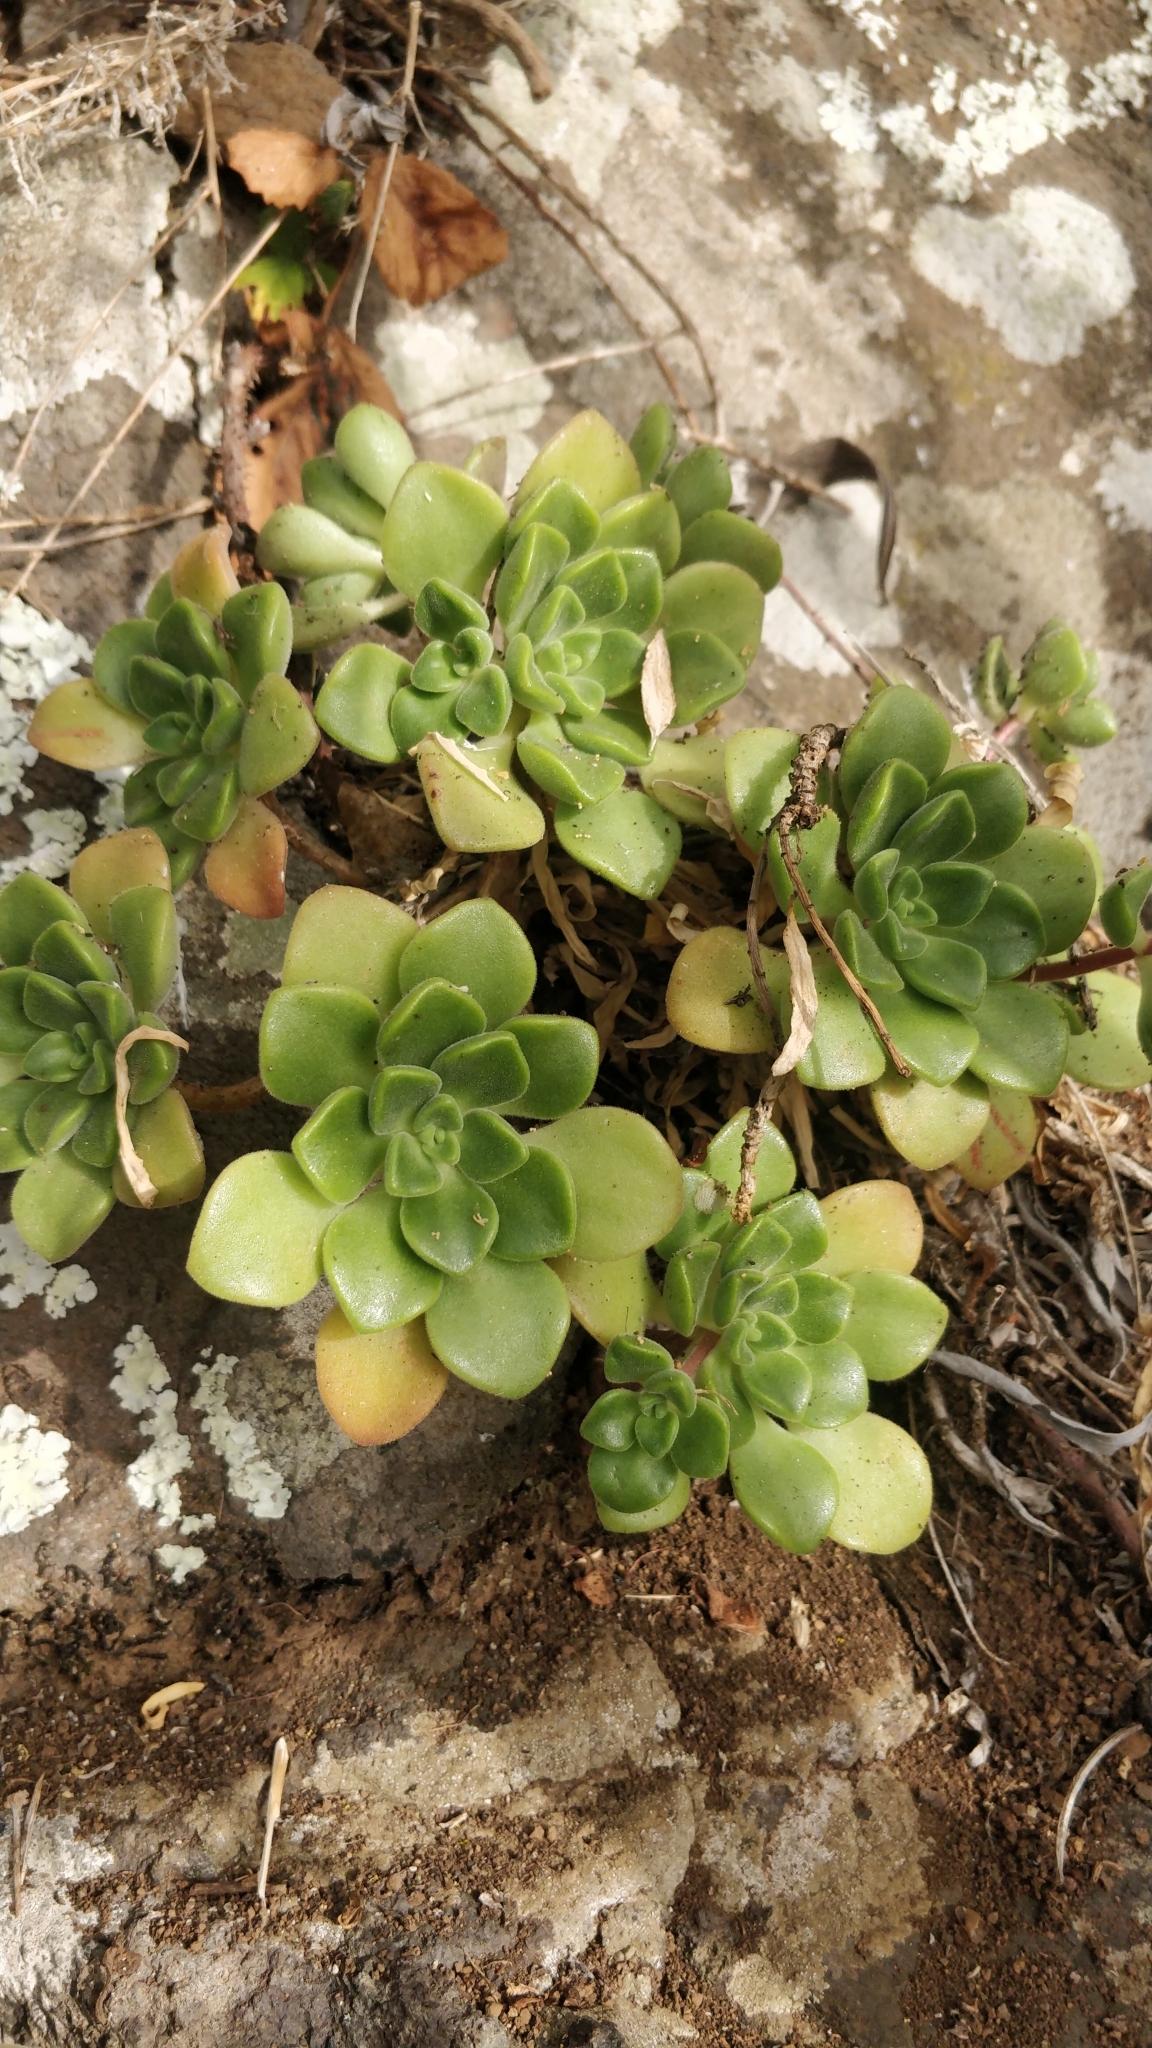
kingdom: Plantae
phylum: Tracheophyta
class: Magnoliopsida
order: Saxifragales
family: Crassulaceae
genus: Aeonium
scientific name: Aeonium lindleyi
